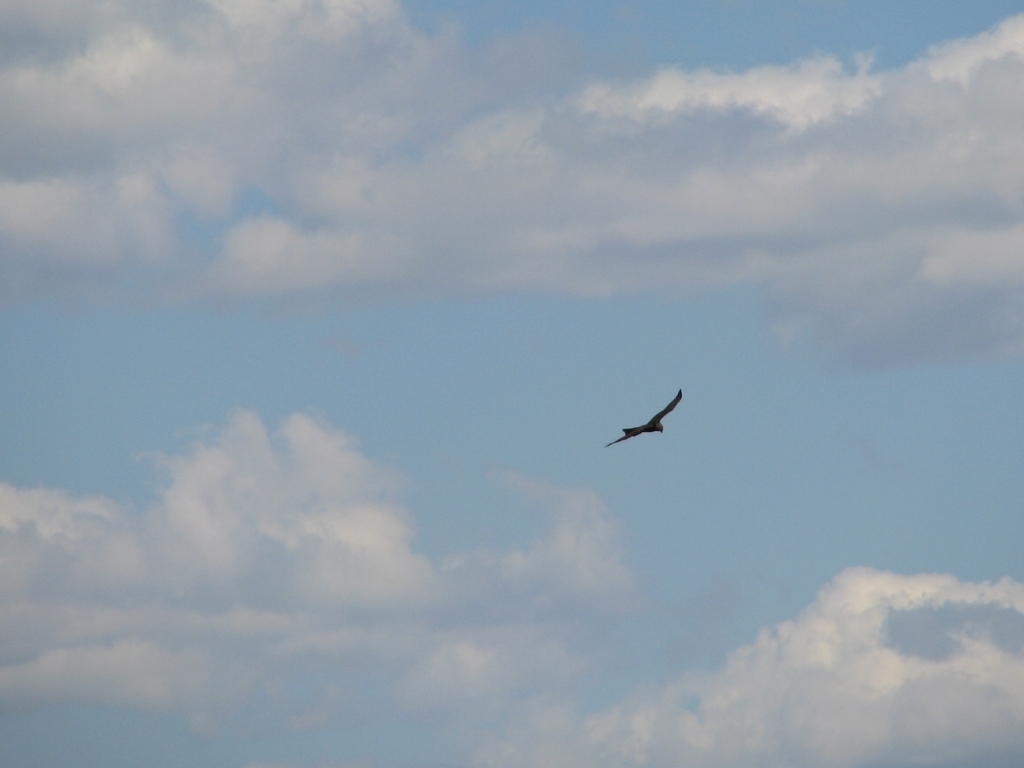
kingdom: Animalia
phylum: Chordata
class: Aves
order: Accipitriformes
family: Accipitridae
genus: Circus
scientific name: Circus aeruginosus
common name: Western marsh harrier
